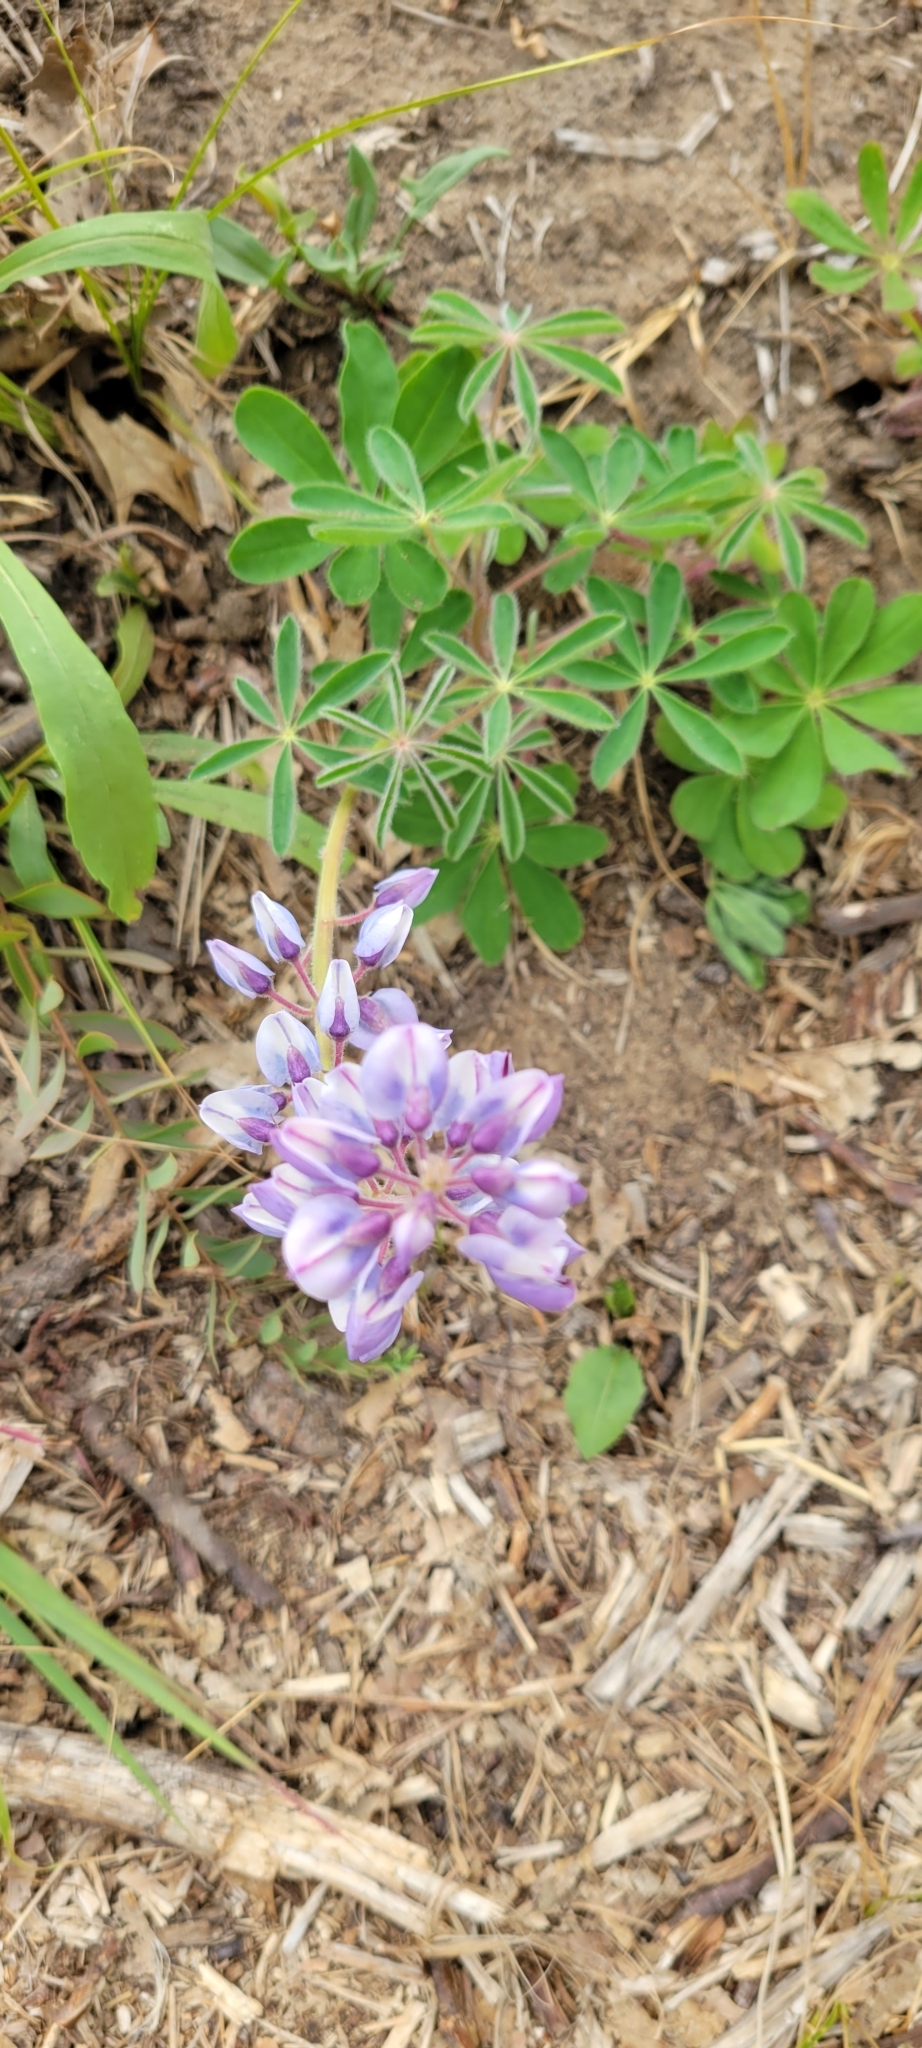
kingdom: Plantae
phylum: Tracheophyta
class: Magnoliopsida
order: Fabales
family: Fabaceae
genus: Lupinus
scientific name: Lupinus perennis
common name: Sundial lupine
